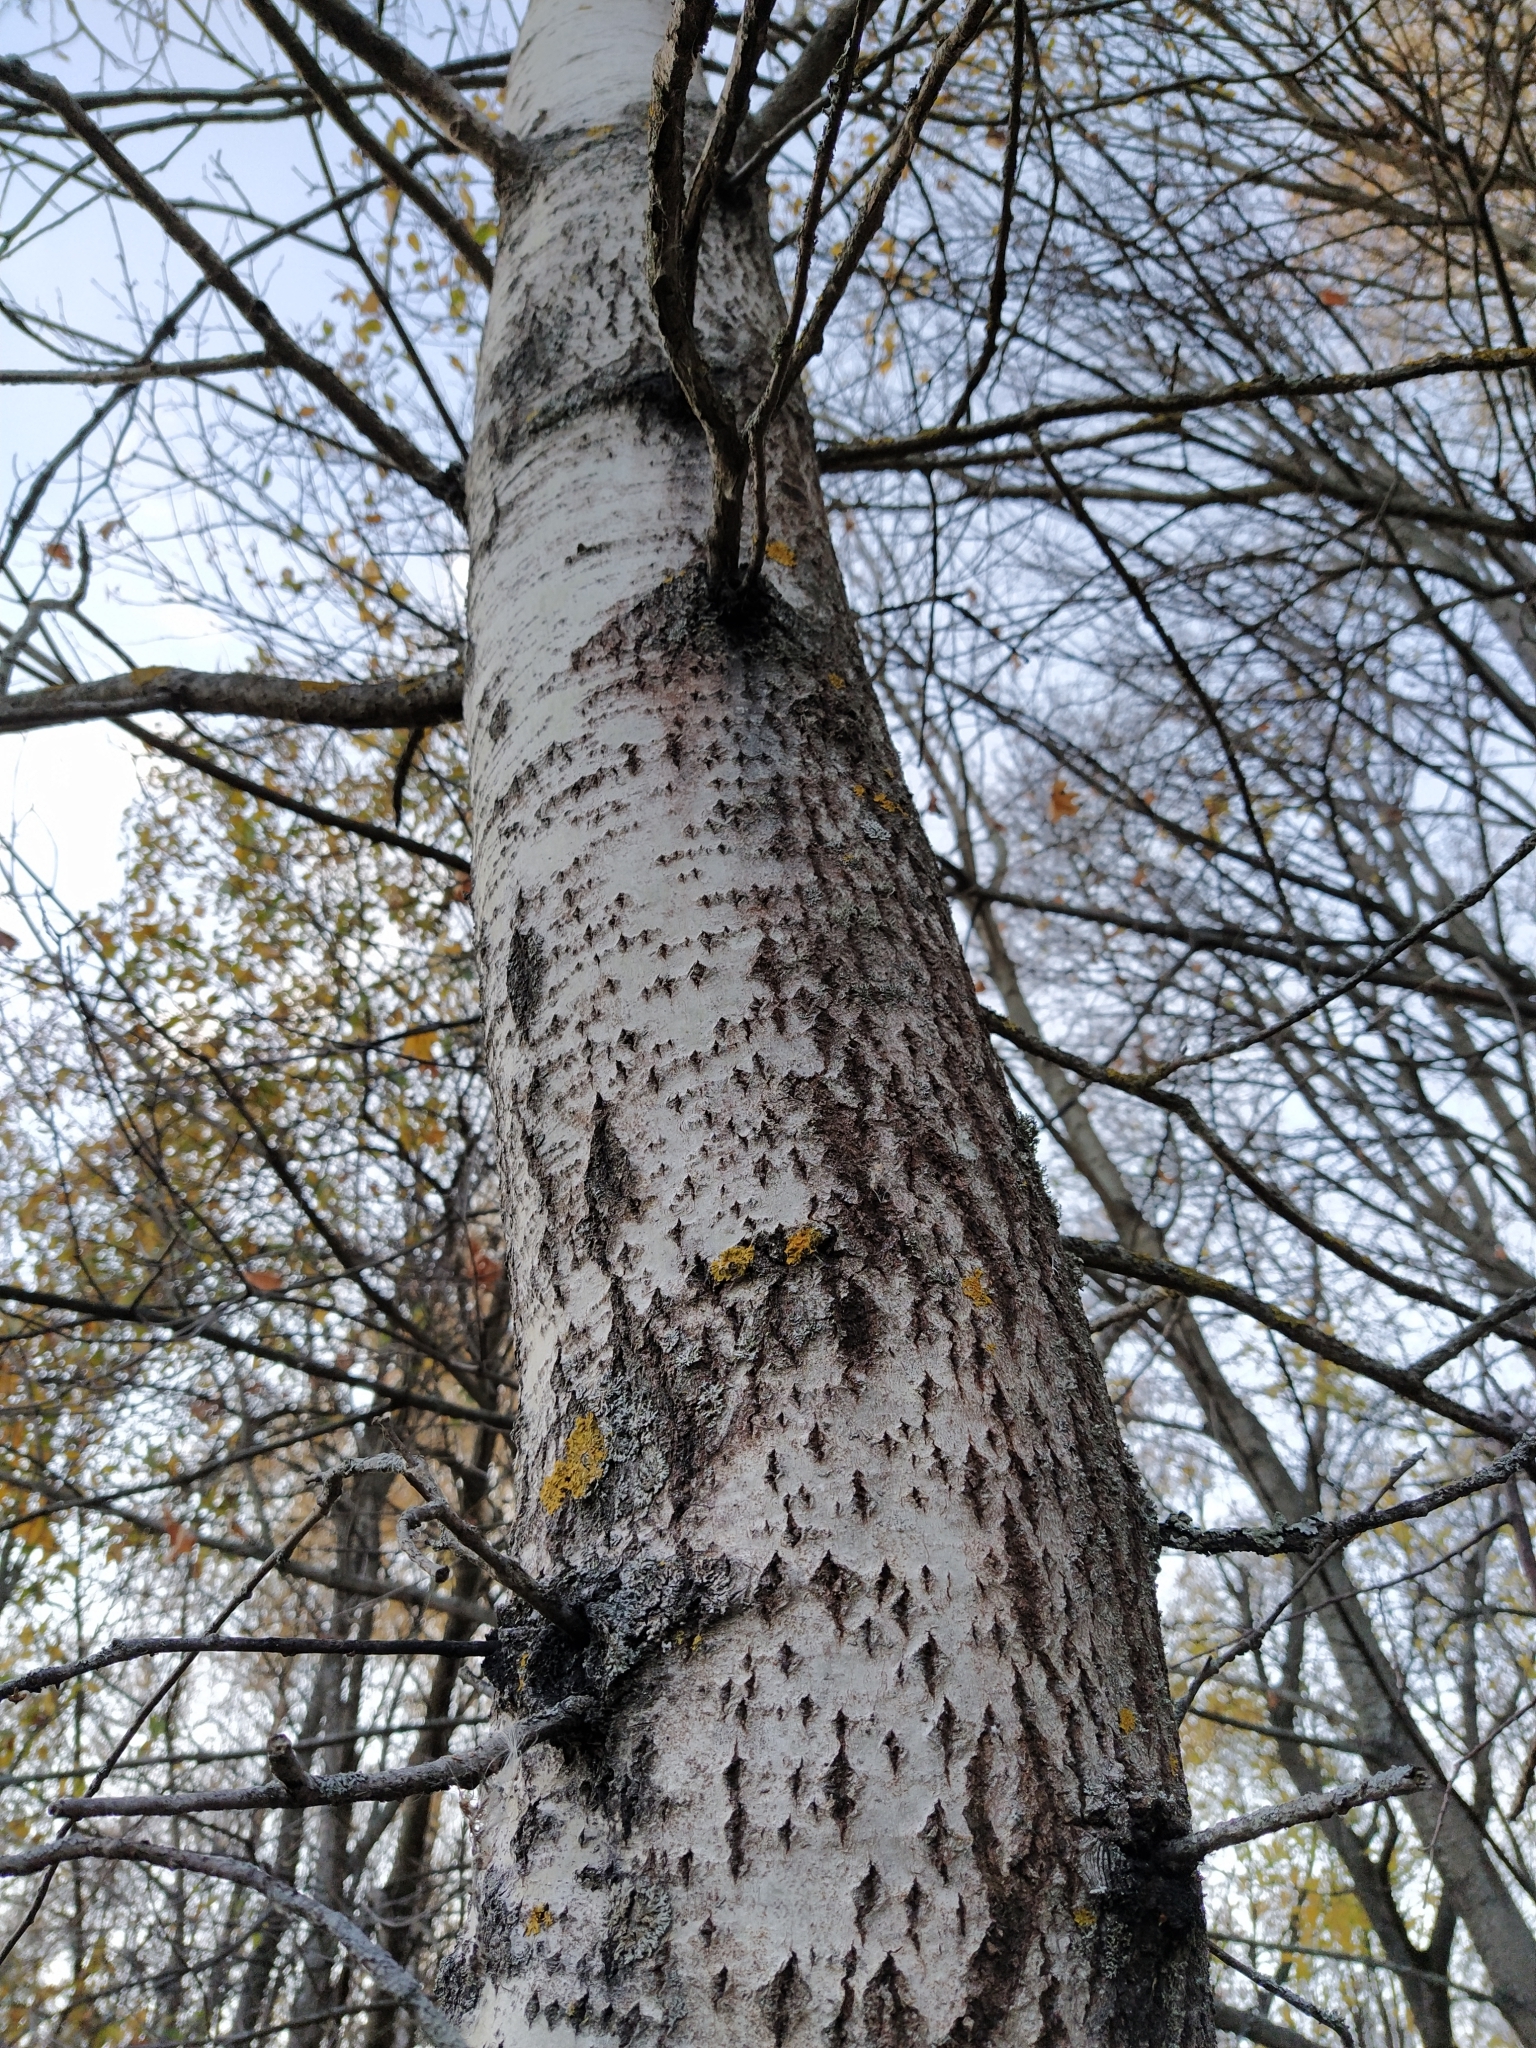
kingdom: Plantae
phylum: Tracheophyta
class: Magnoliopsida
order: Malpighiales
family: Salicaceae
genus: Populus
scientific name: Populus tremula
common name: European aspen
